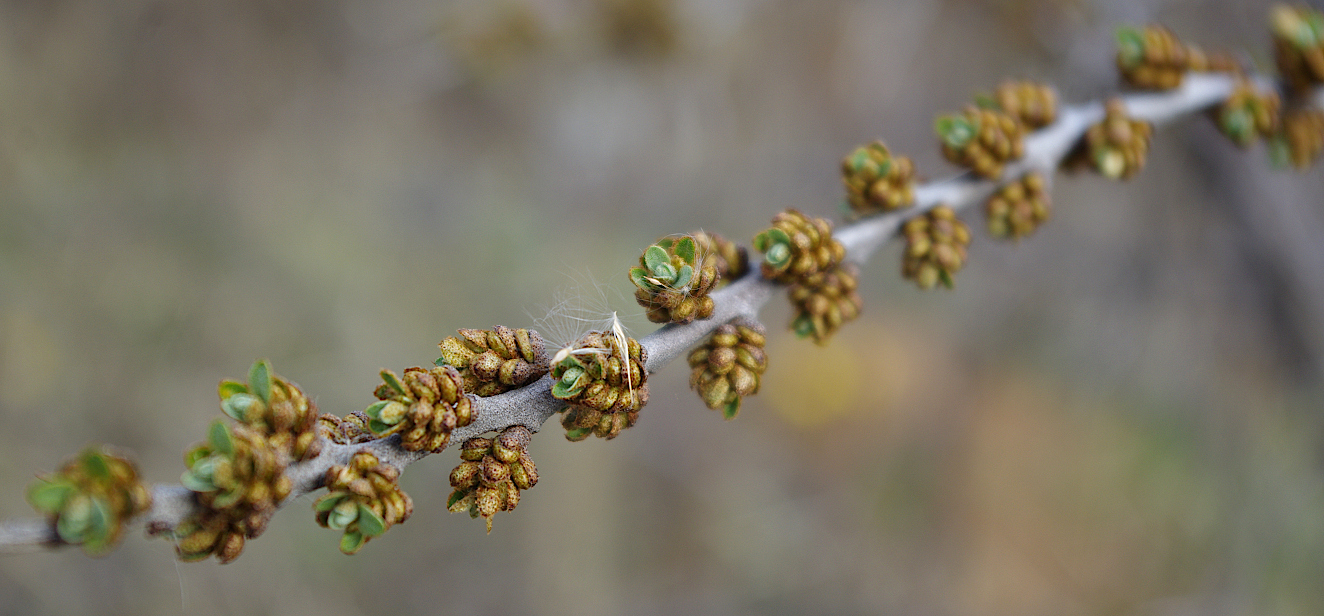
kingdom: Plantae
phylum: Tracheophyta
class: Magnoliopsida
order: Rosales
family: Elaeagnaceae
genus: Hippophae
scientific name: Hippophae rhamnoides
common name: Sea-buckthorn
